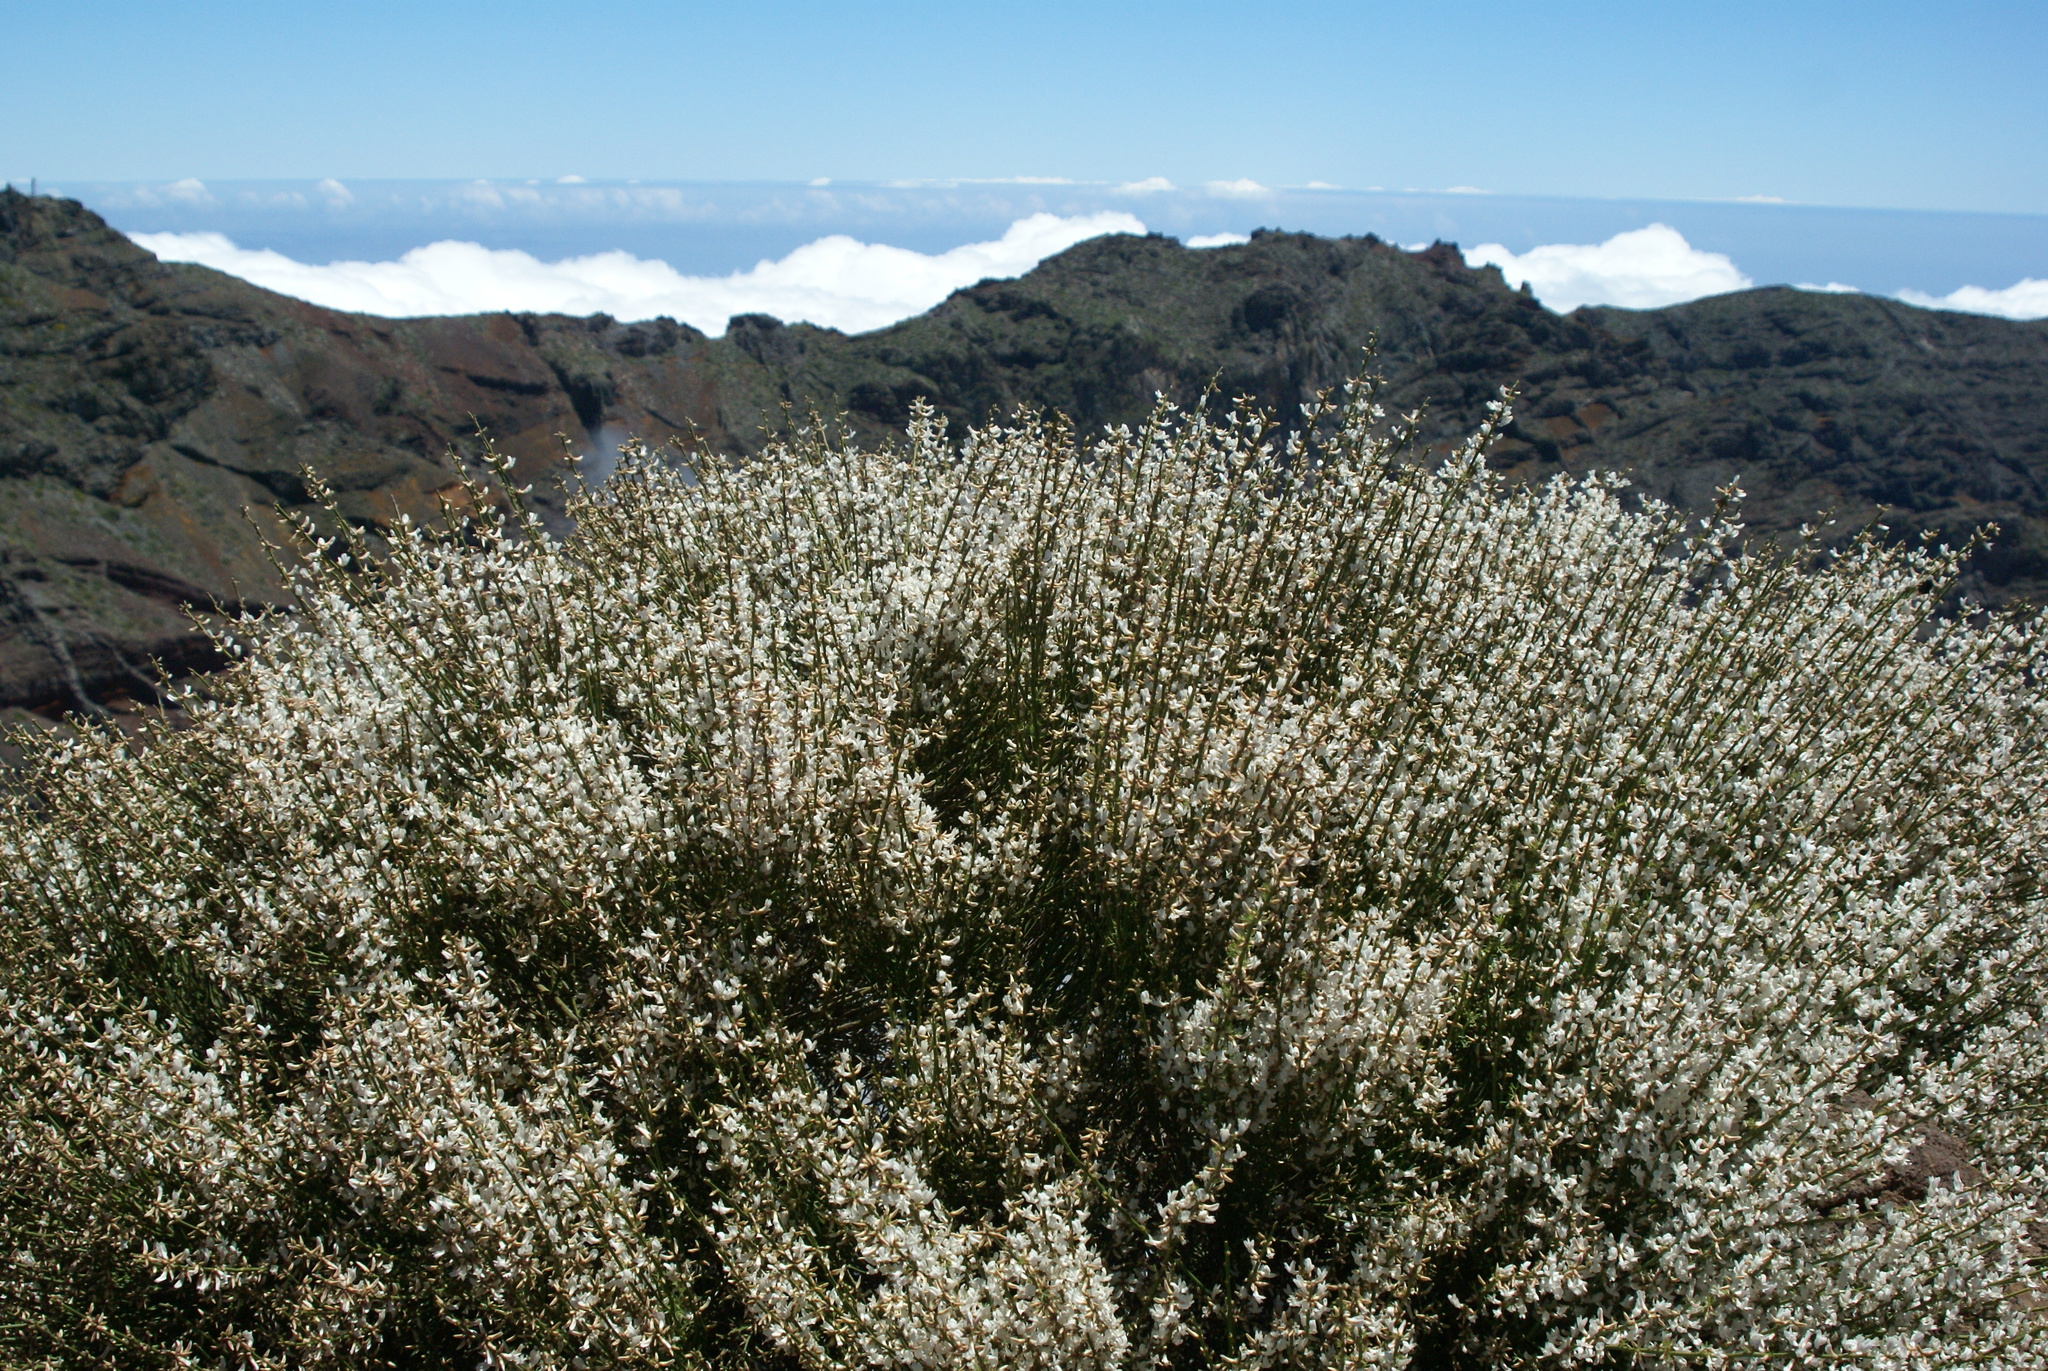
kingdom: Plantae
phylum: Tracheophyta
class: Magnoliopsida
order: Fabales
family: Fabaceae
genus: Cytisus
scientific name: Cytisus supranubius
